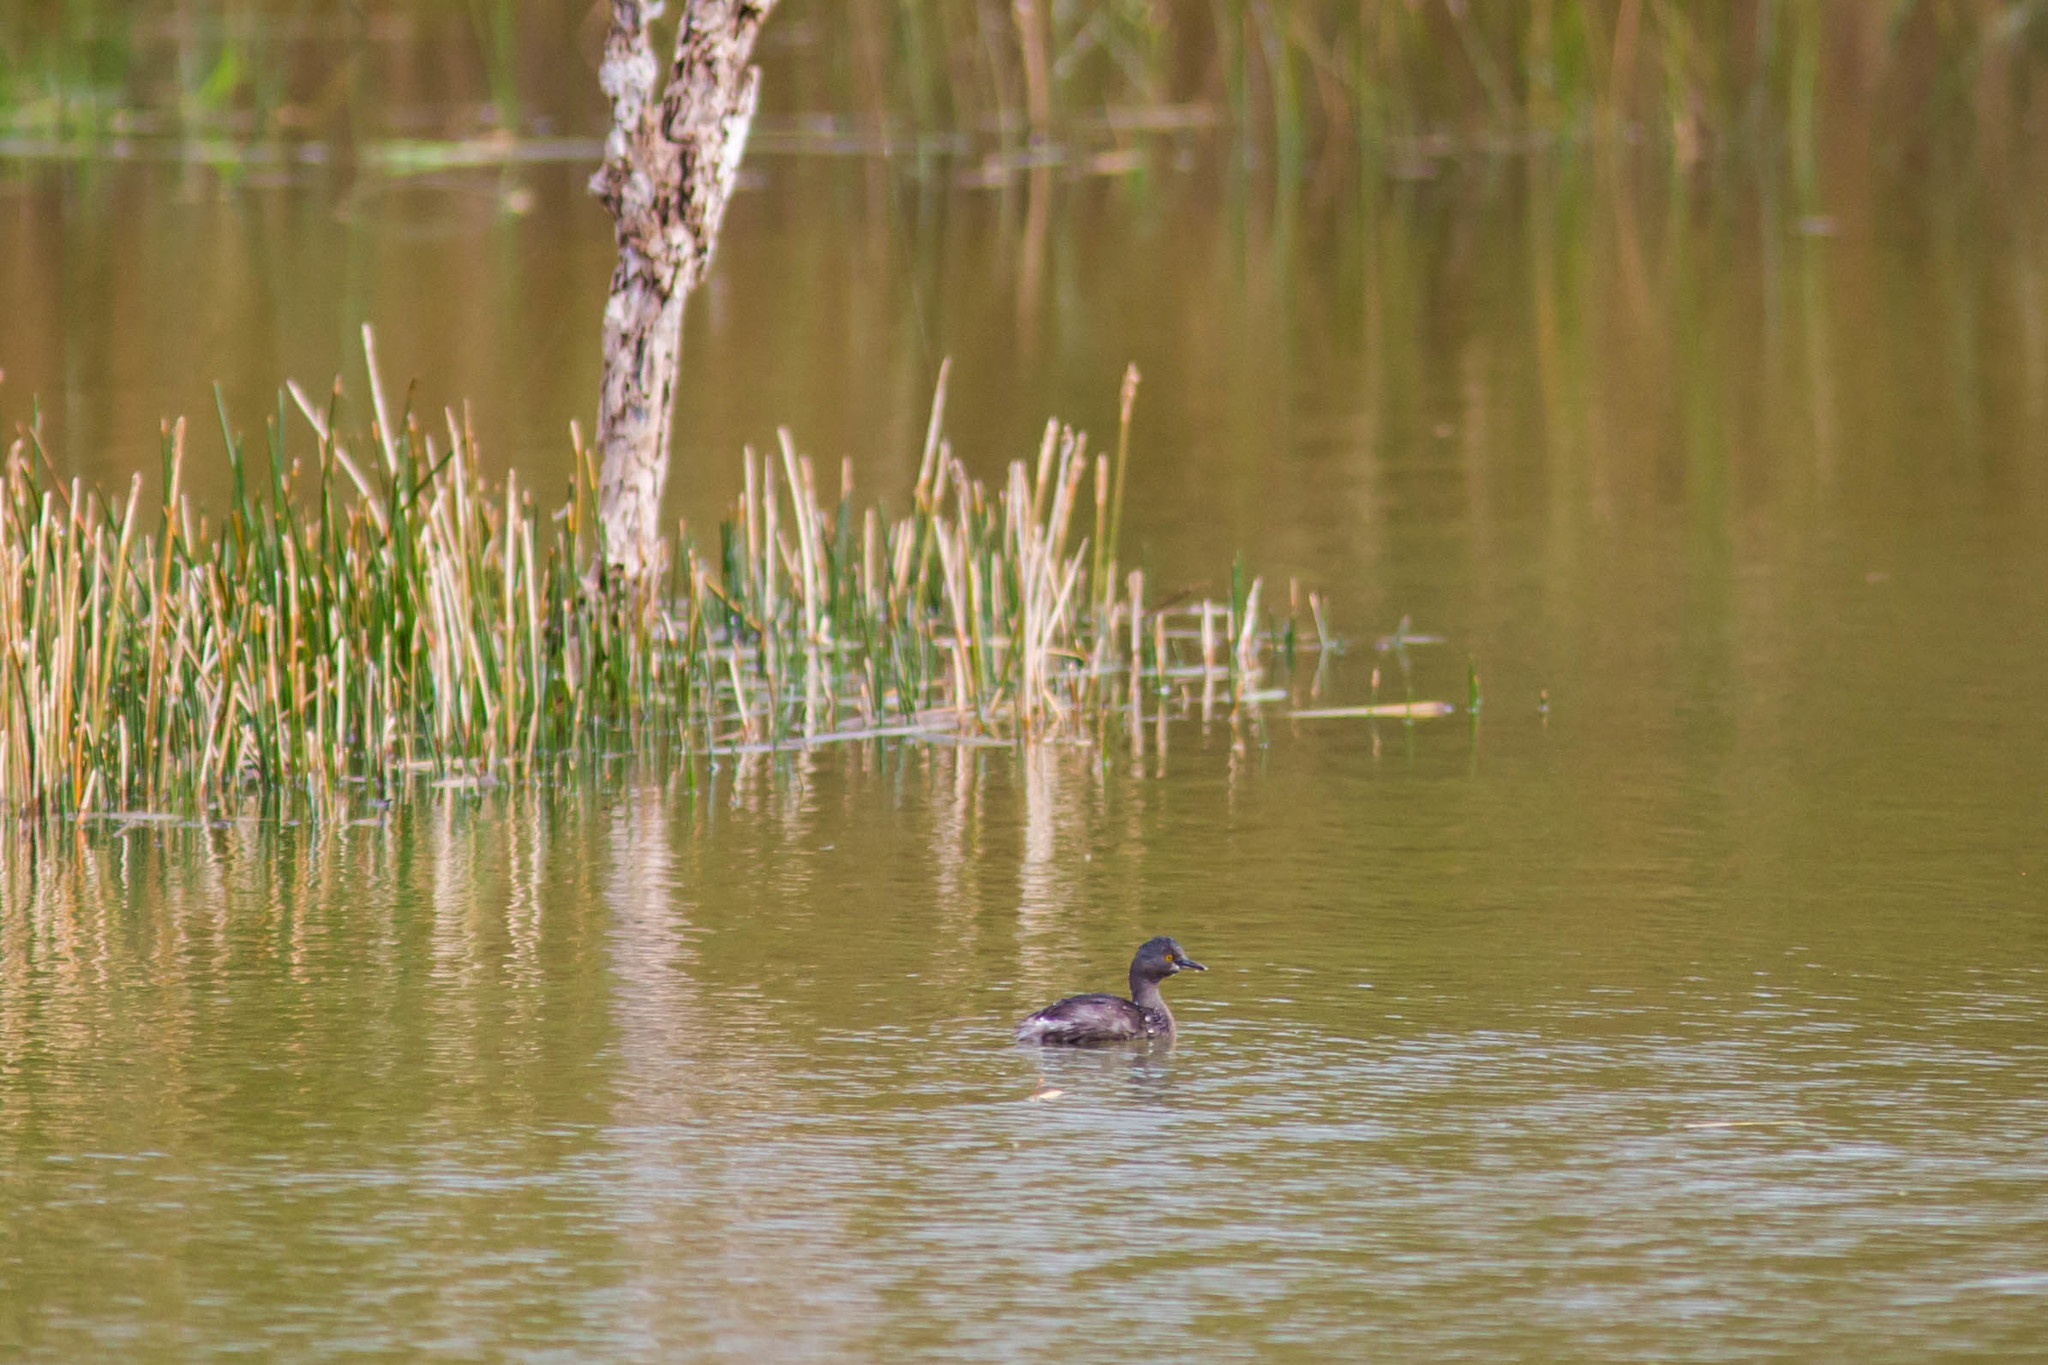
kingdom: Animalia
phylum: Chordata
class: Aves
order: Podicipediformes
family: Podicipedidae
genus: Tachybaptus
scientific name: Tachybaptus dominicus
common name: Least grebe
